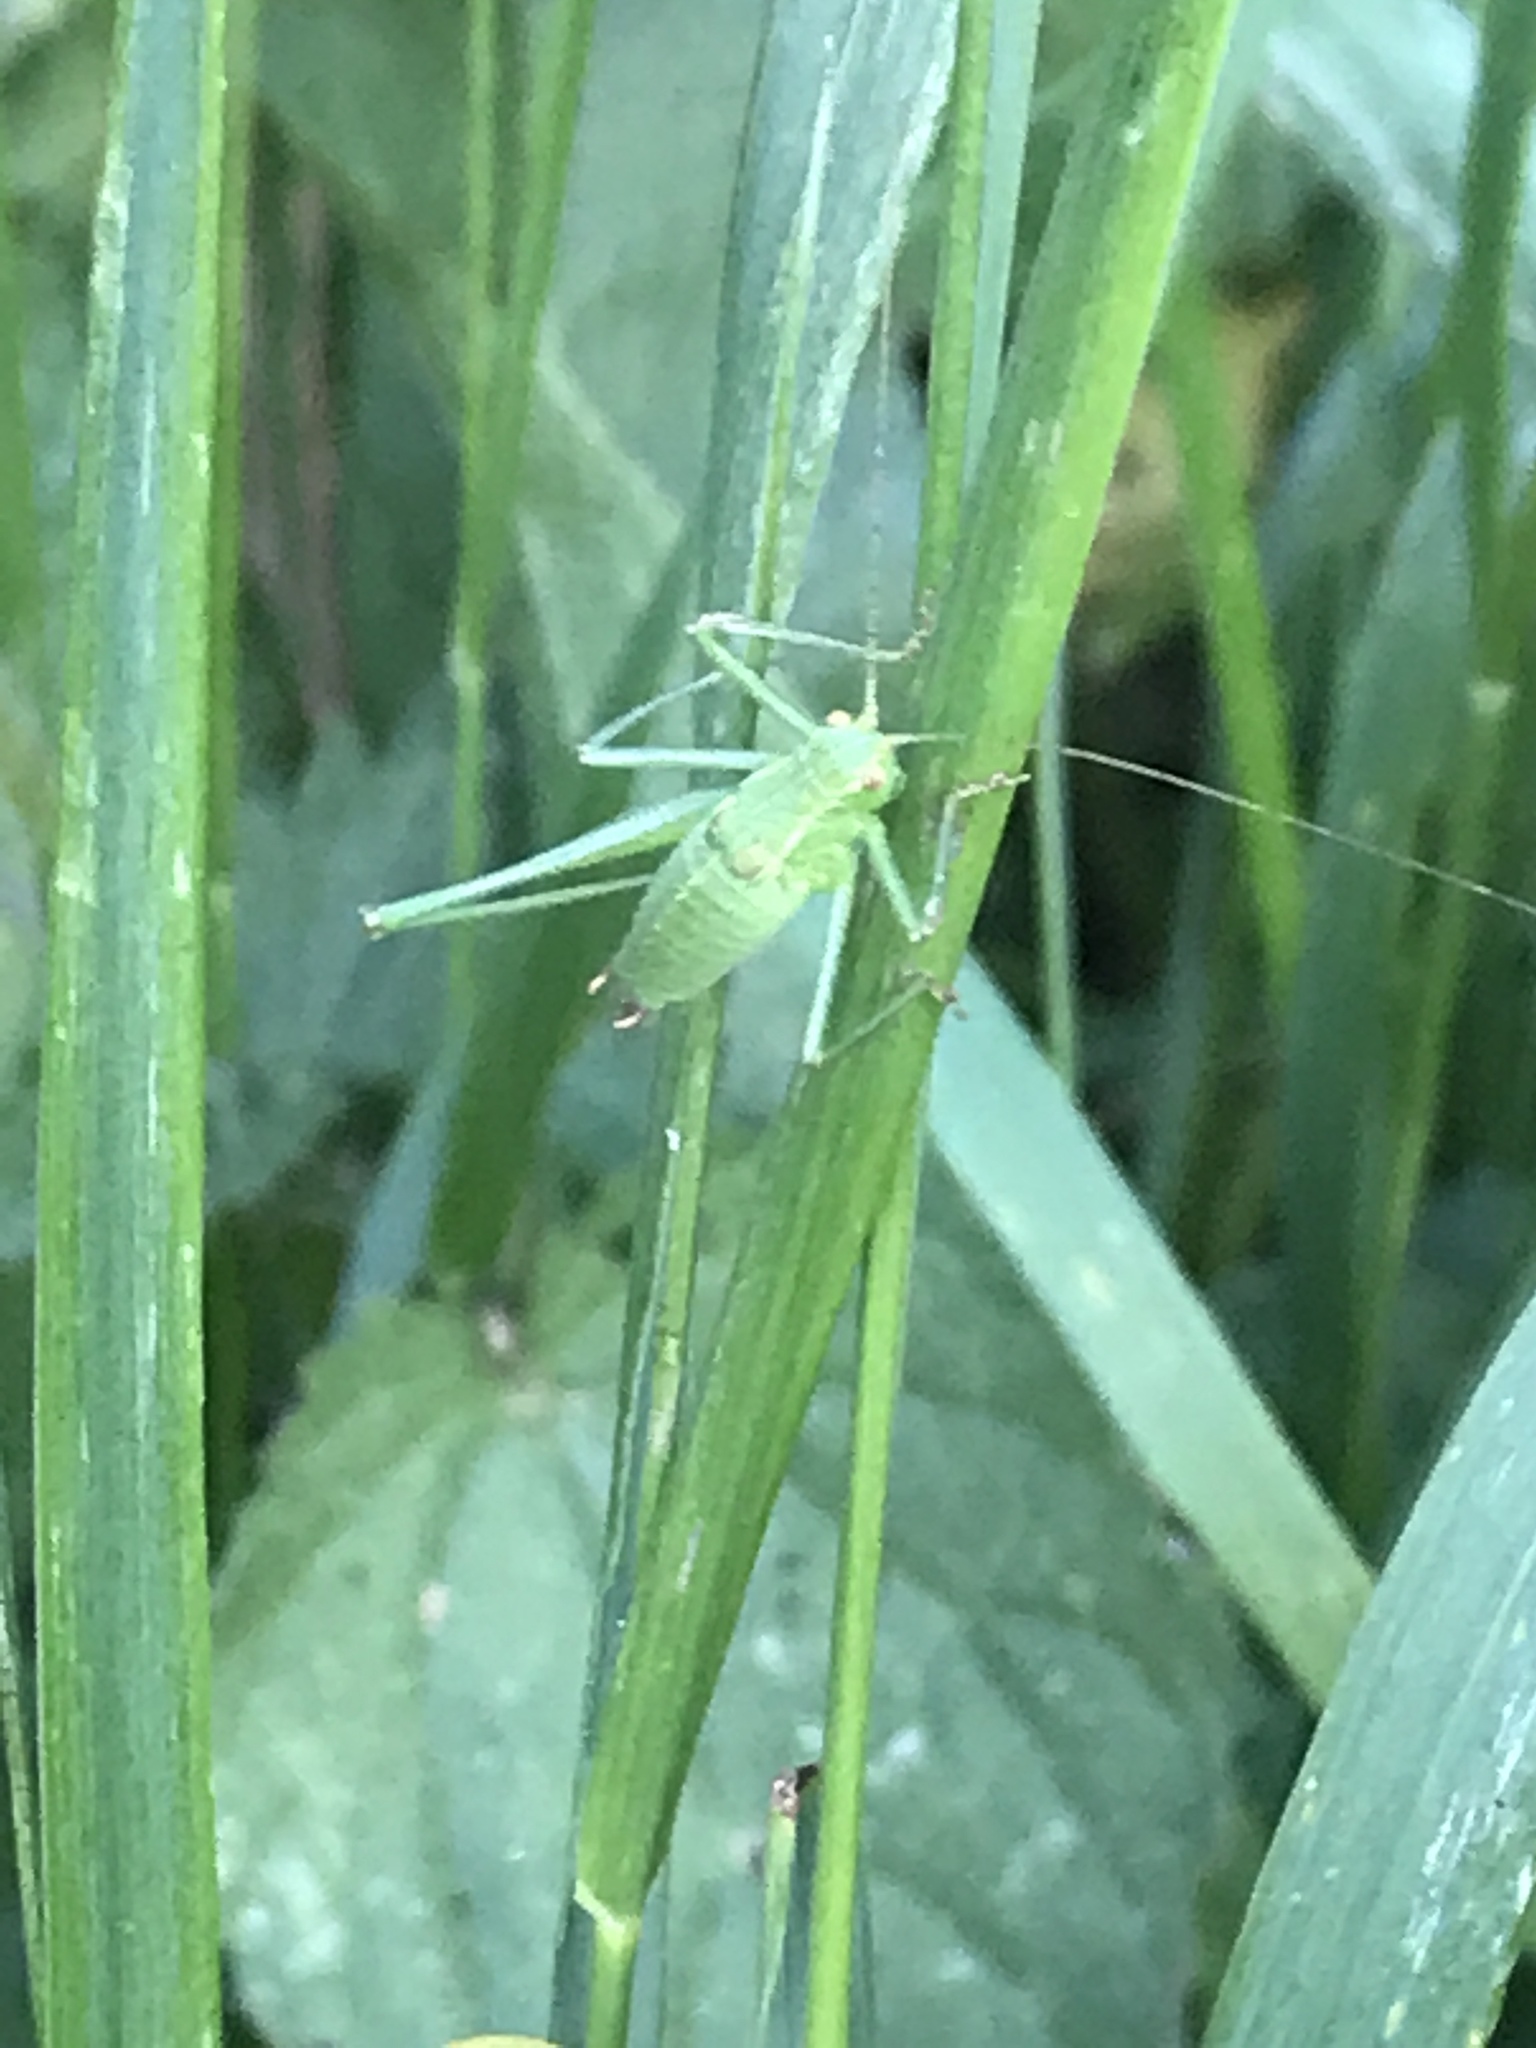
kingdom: Animalia
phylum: Arthropoda
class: Insecta
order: Orthoptera
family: Tettigoniidae
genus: Leptophyes
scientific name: Leptophyes punctatissima
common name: Speckled bush-cricket
